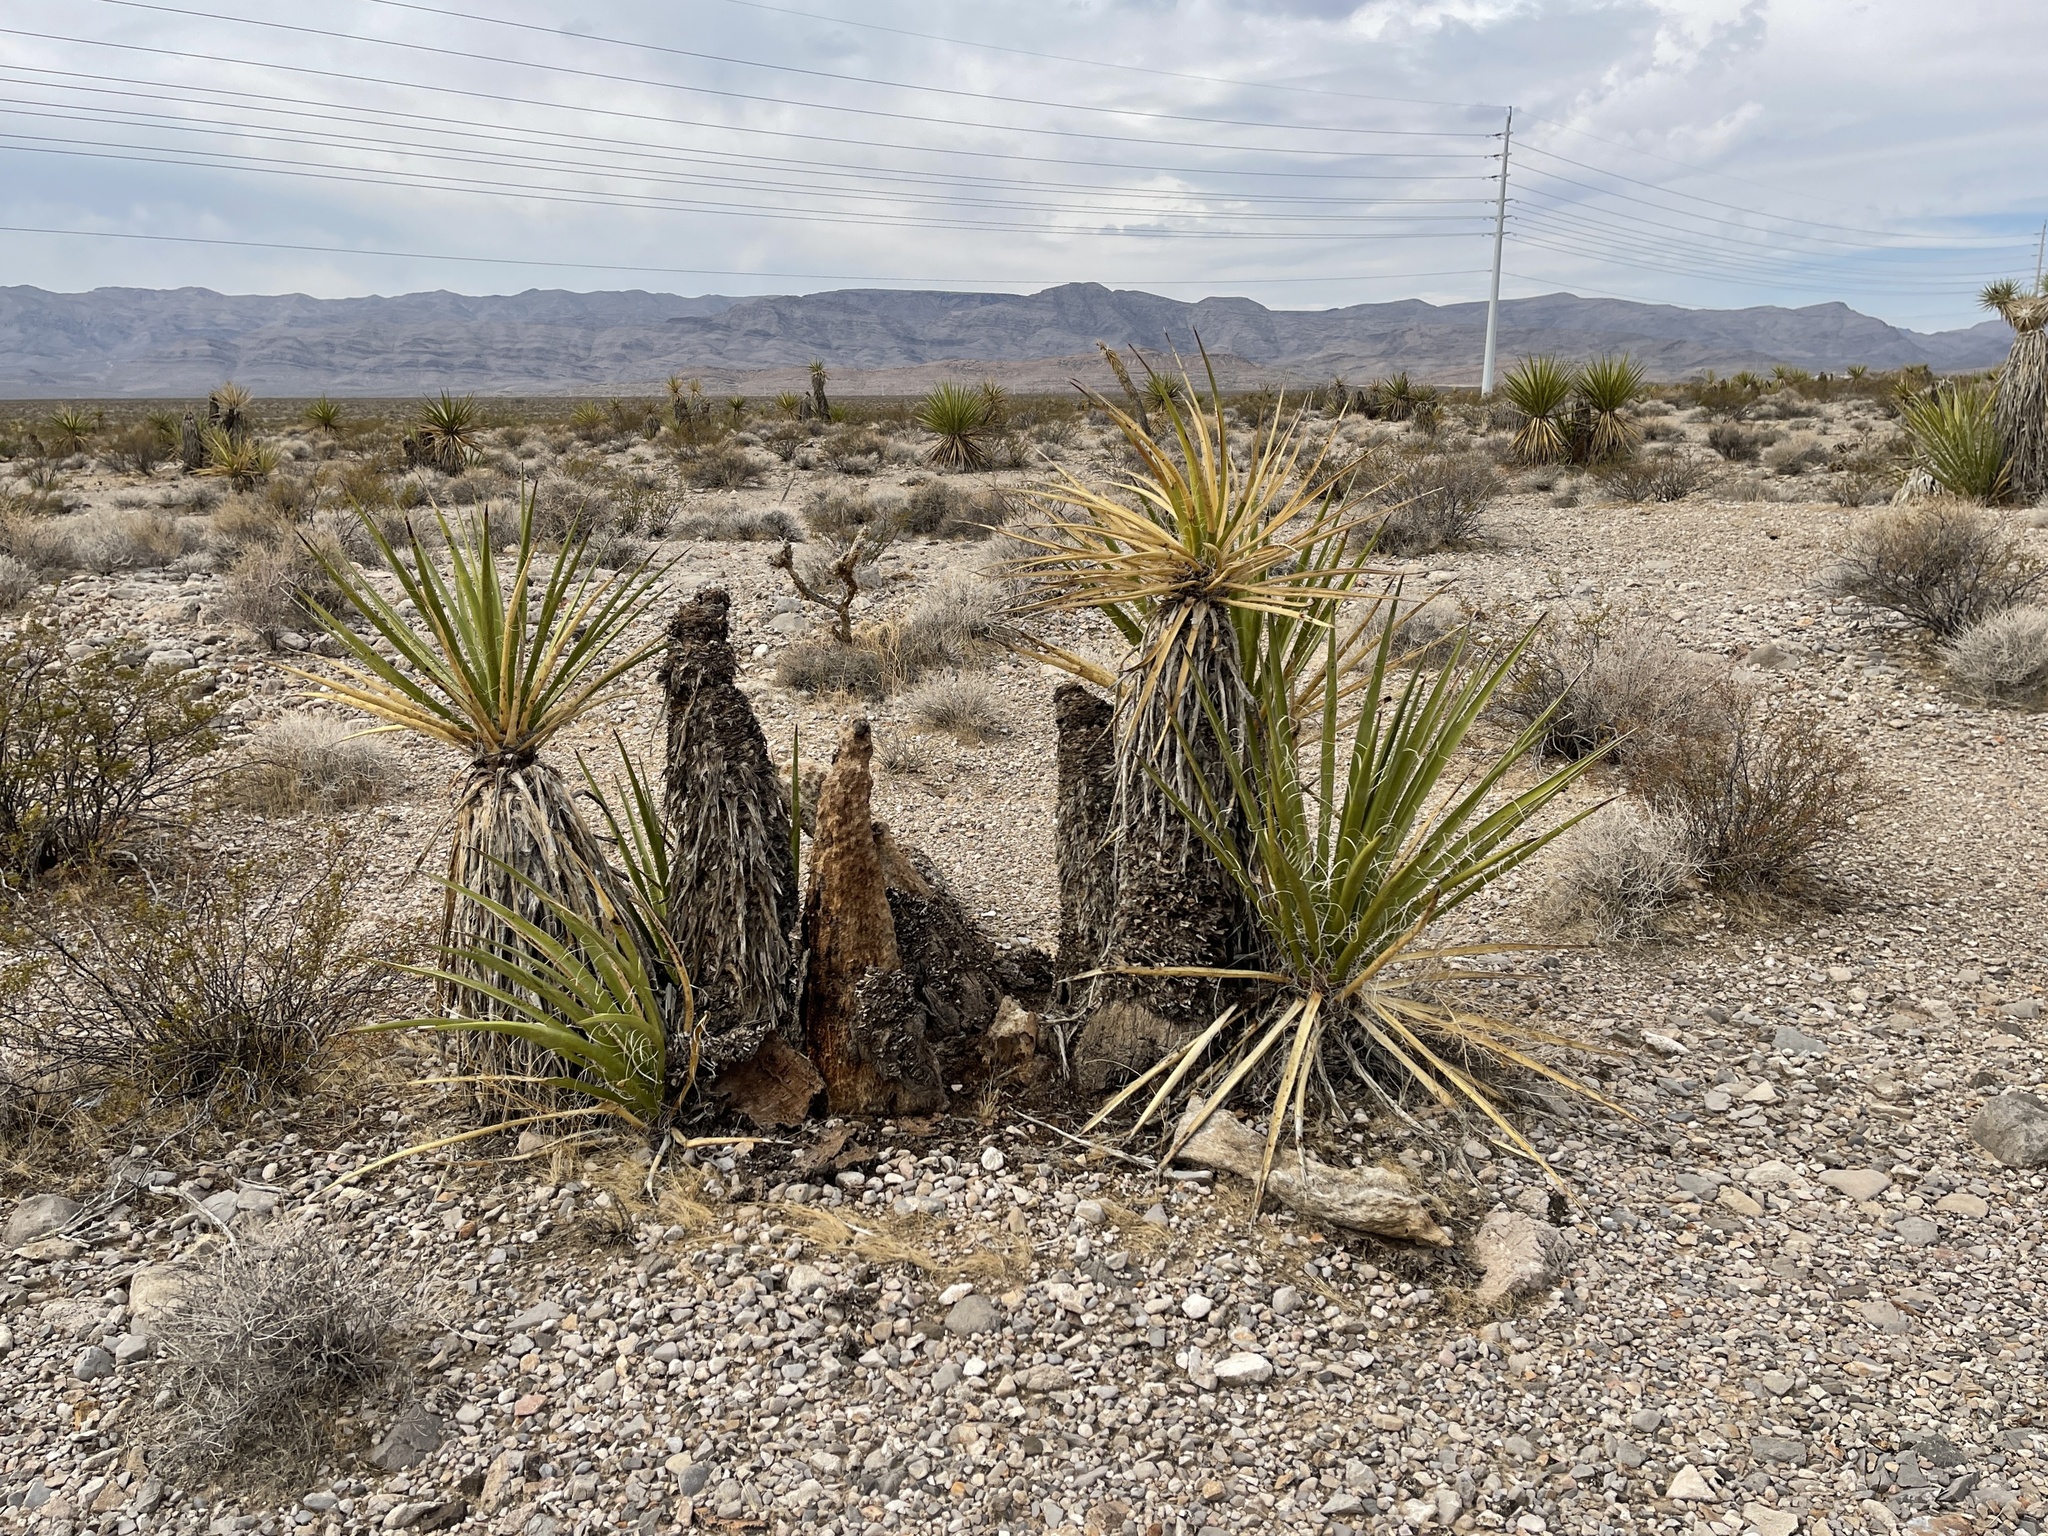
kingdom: Plantae
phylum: Tracheophyta
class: Liliopsida
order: Asparagales
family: Asparagaceae
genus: Yucca
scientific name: Yucca schidigera
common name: Mojave yucca
